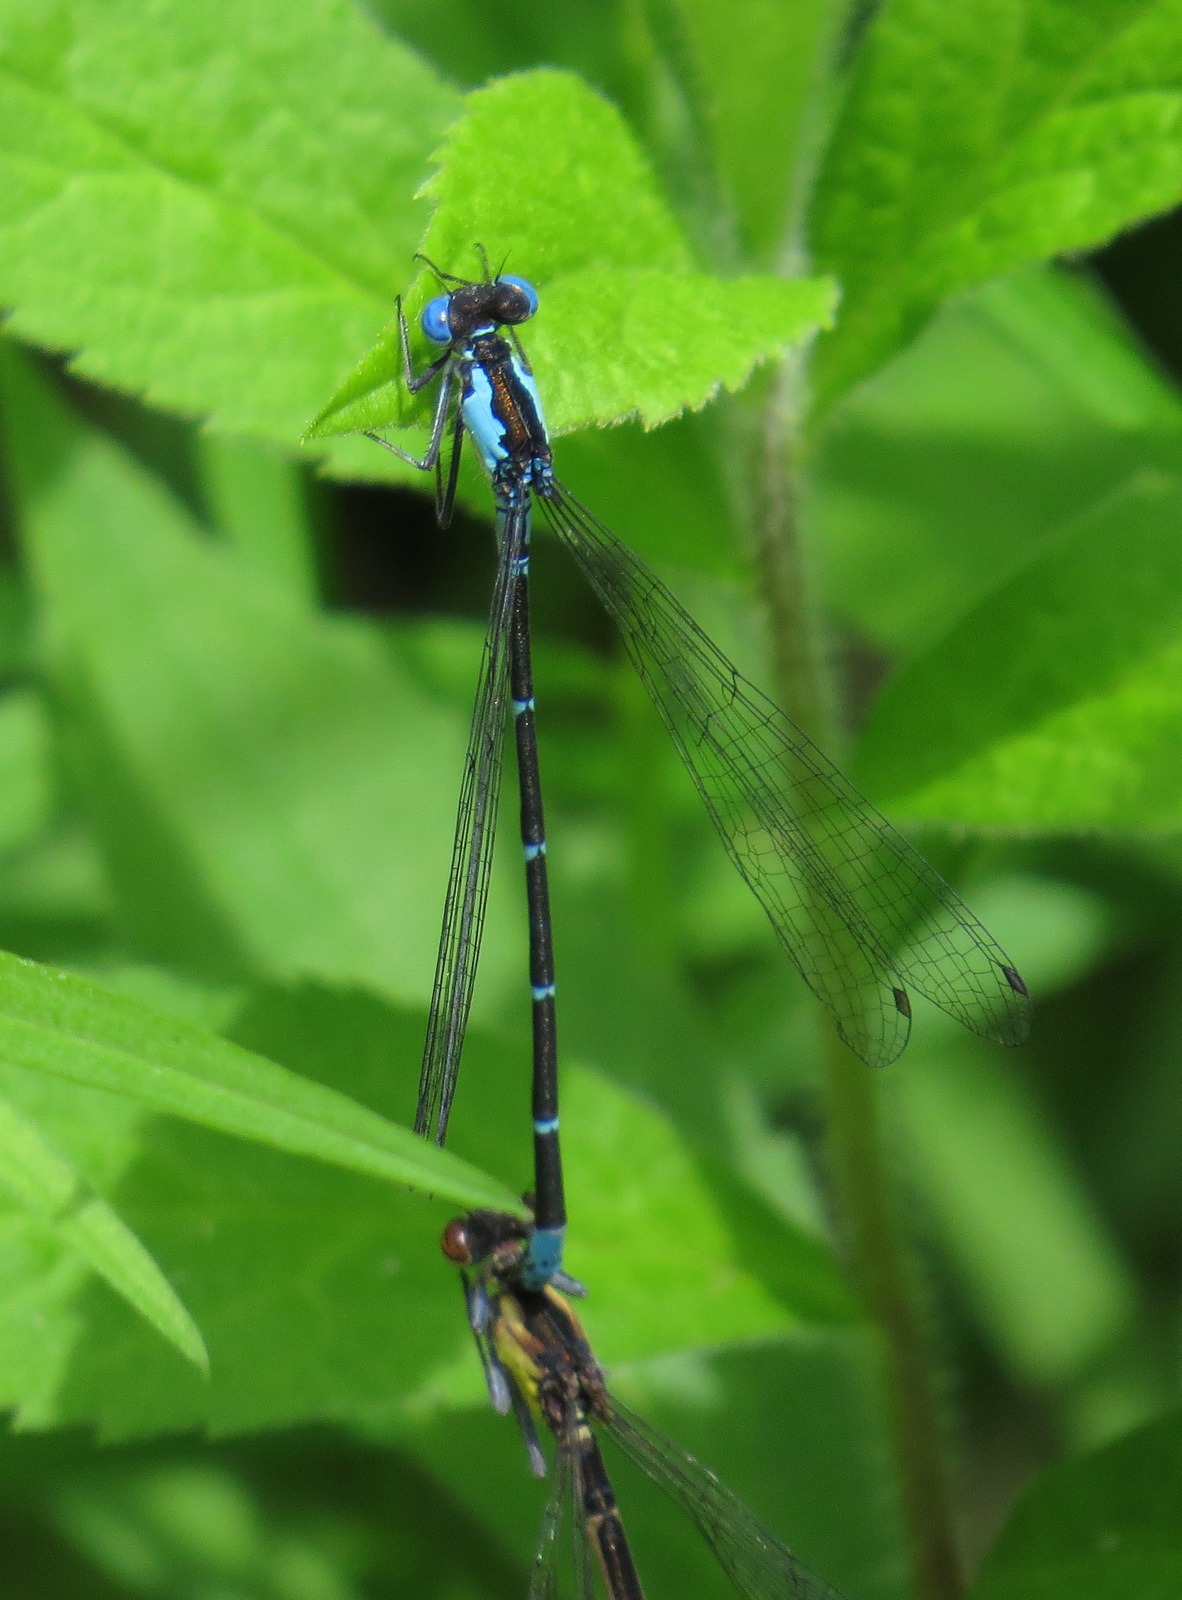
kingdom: Animalia
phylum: Arthropoda
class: Insecta
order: Odonata
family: Coenagrionidae
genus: Chromagrion
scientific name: Chromagrion conditum
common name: Aurora damsel
